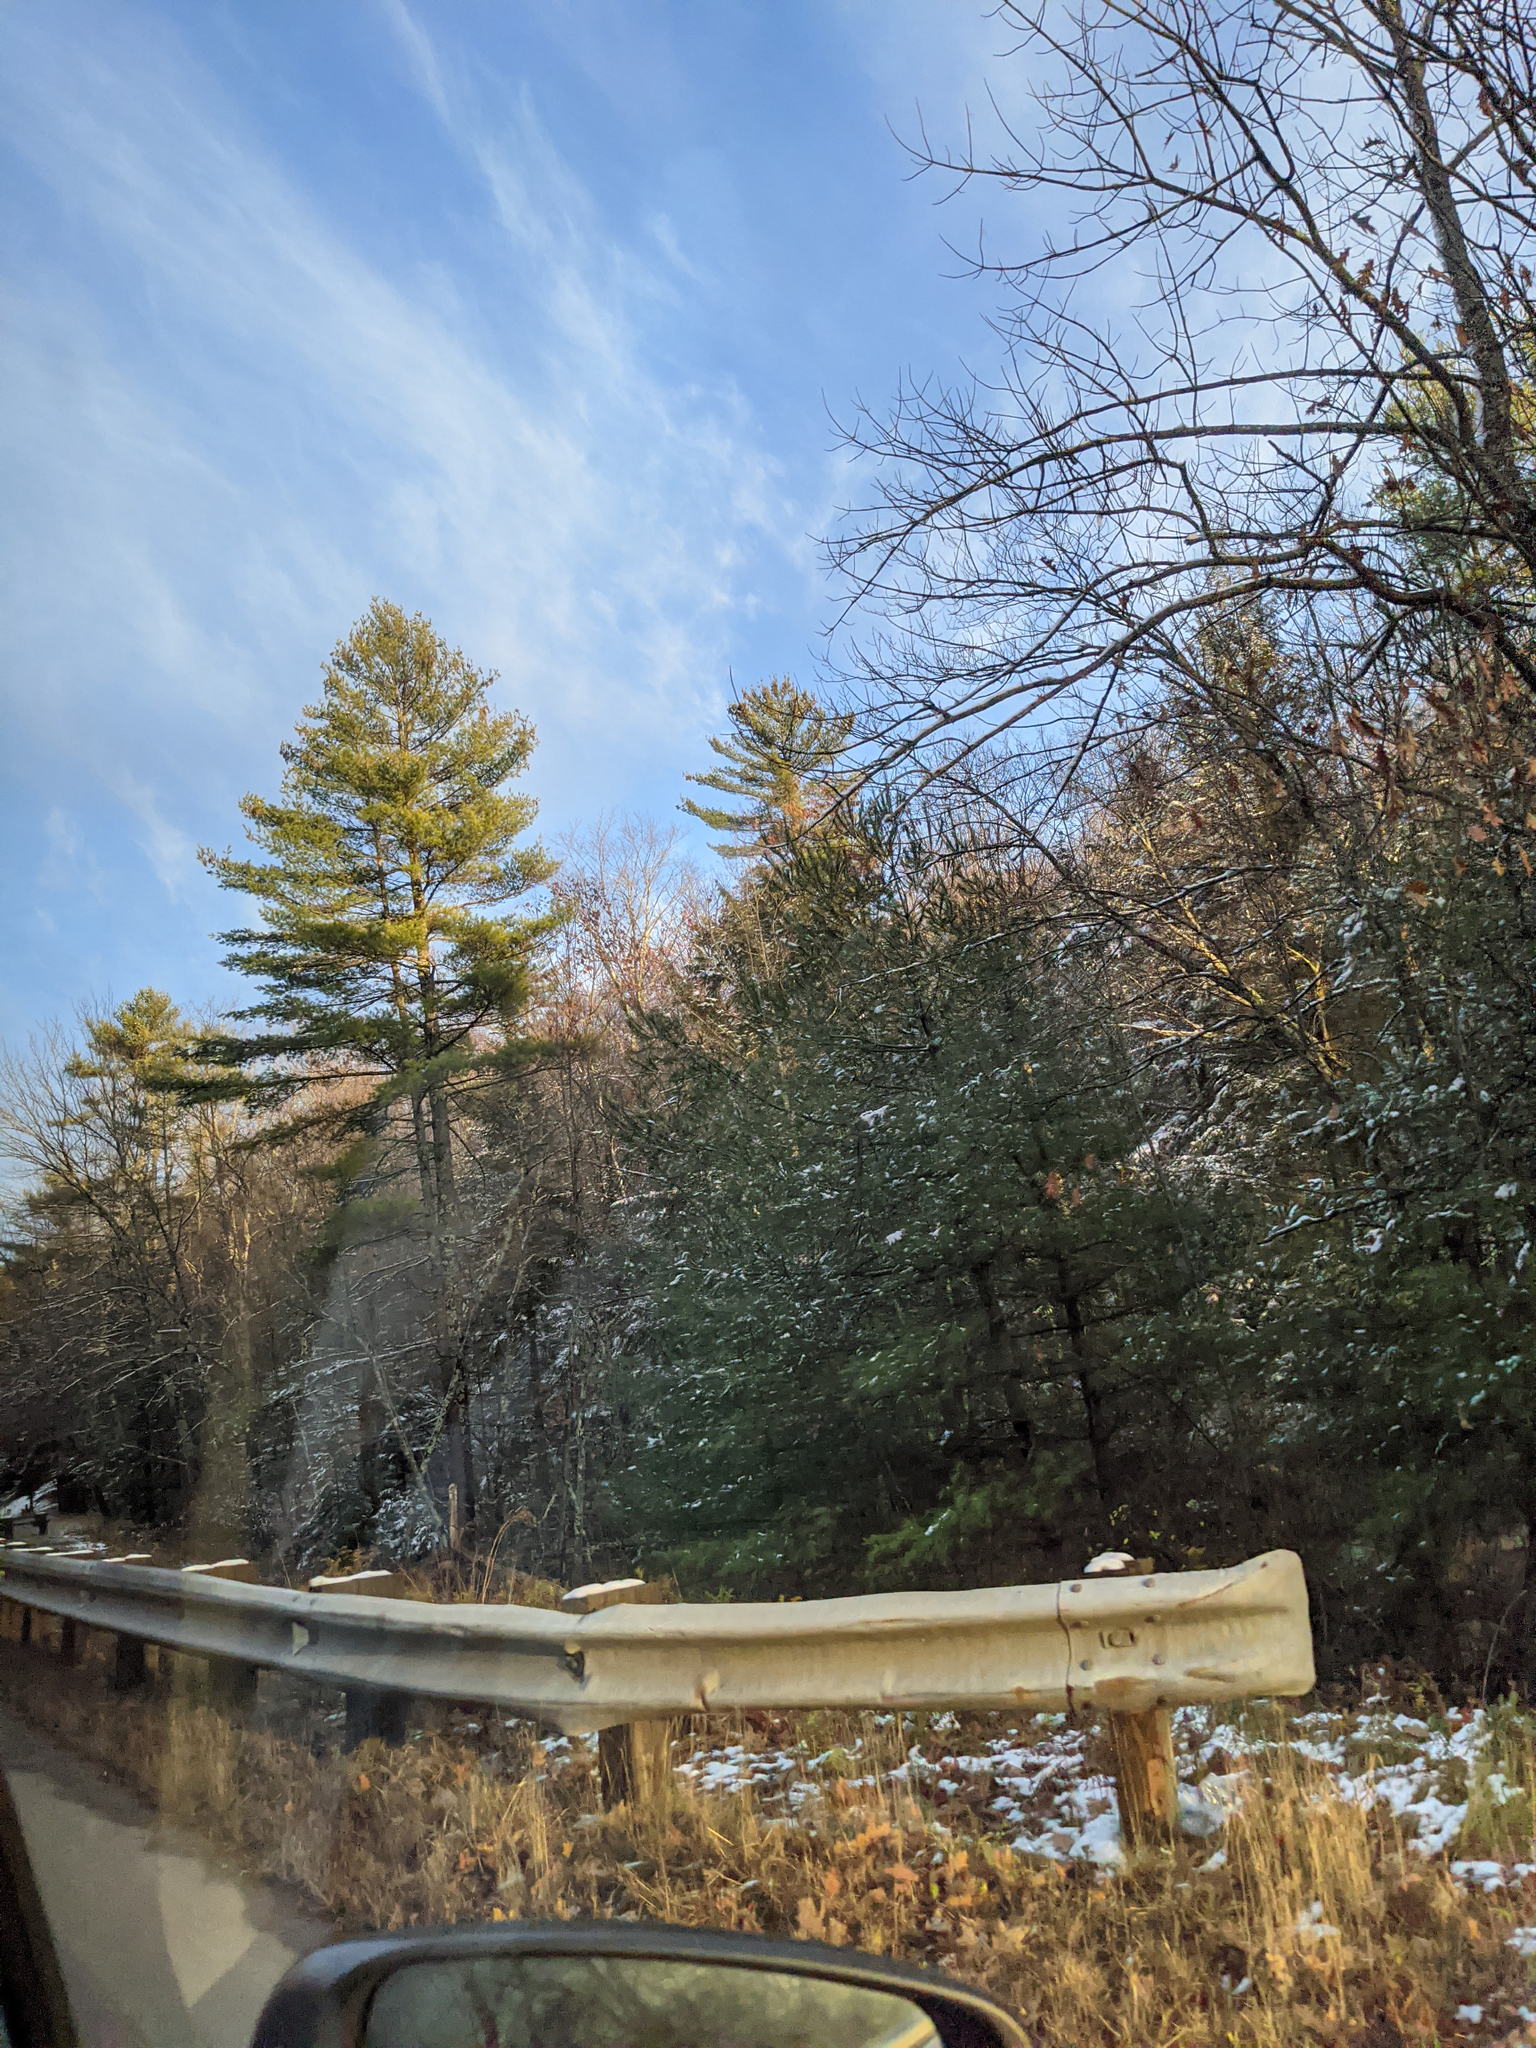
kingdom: Plantae
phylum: Tracheophyta
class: Pinopsida
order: Pinales
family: Pinaceae
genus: Pinus
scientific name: Pinus strobus
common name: Weymouth pine
